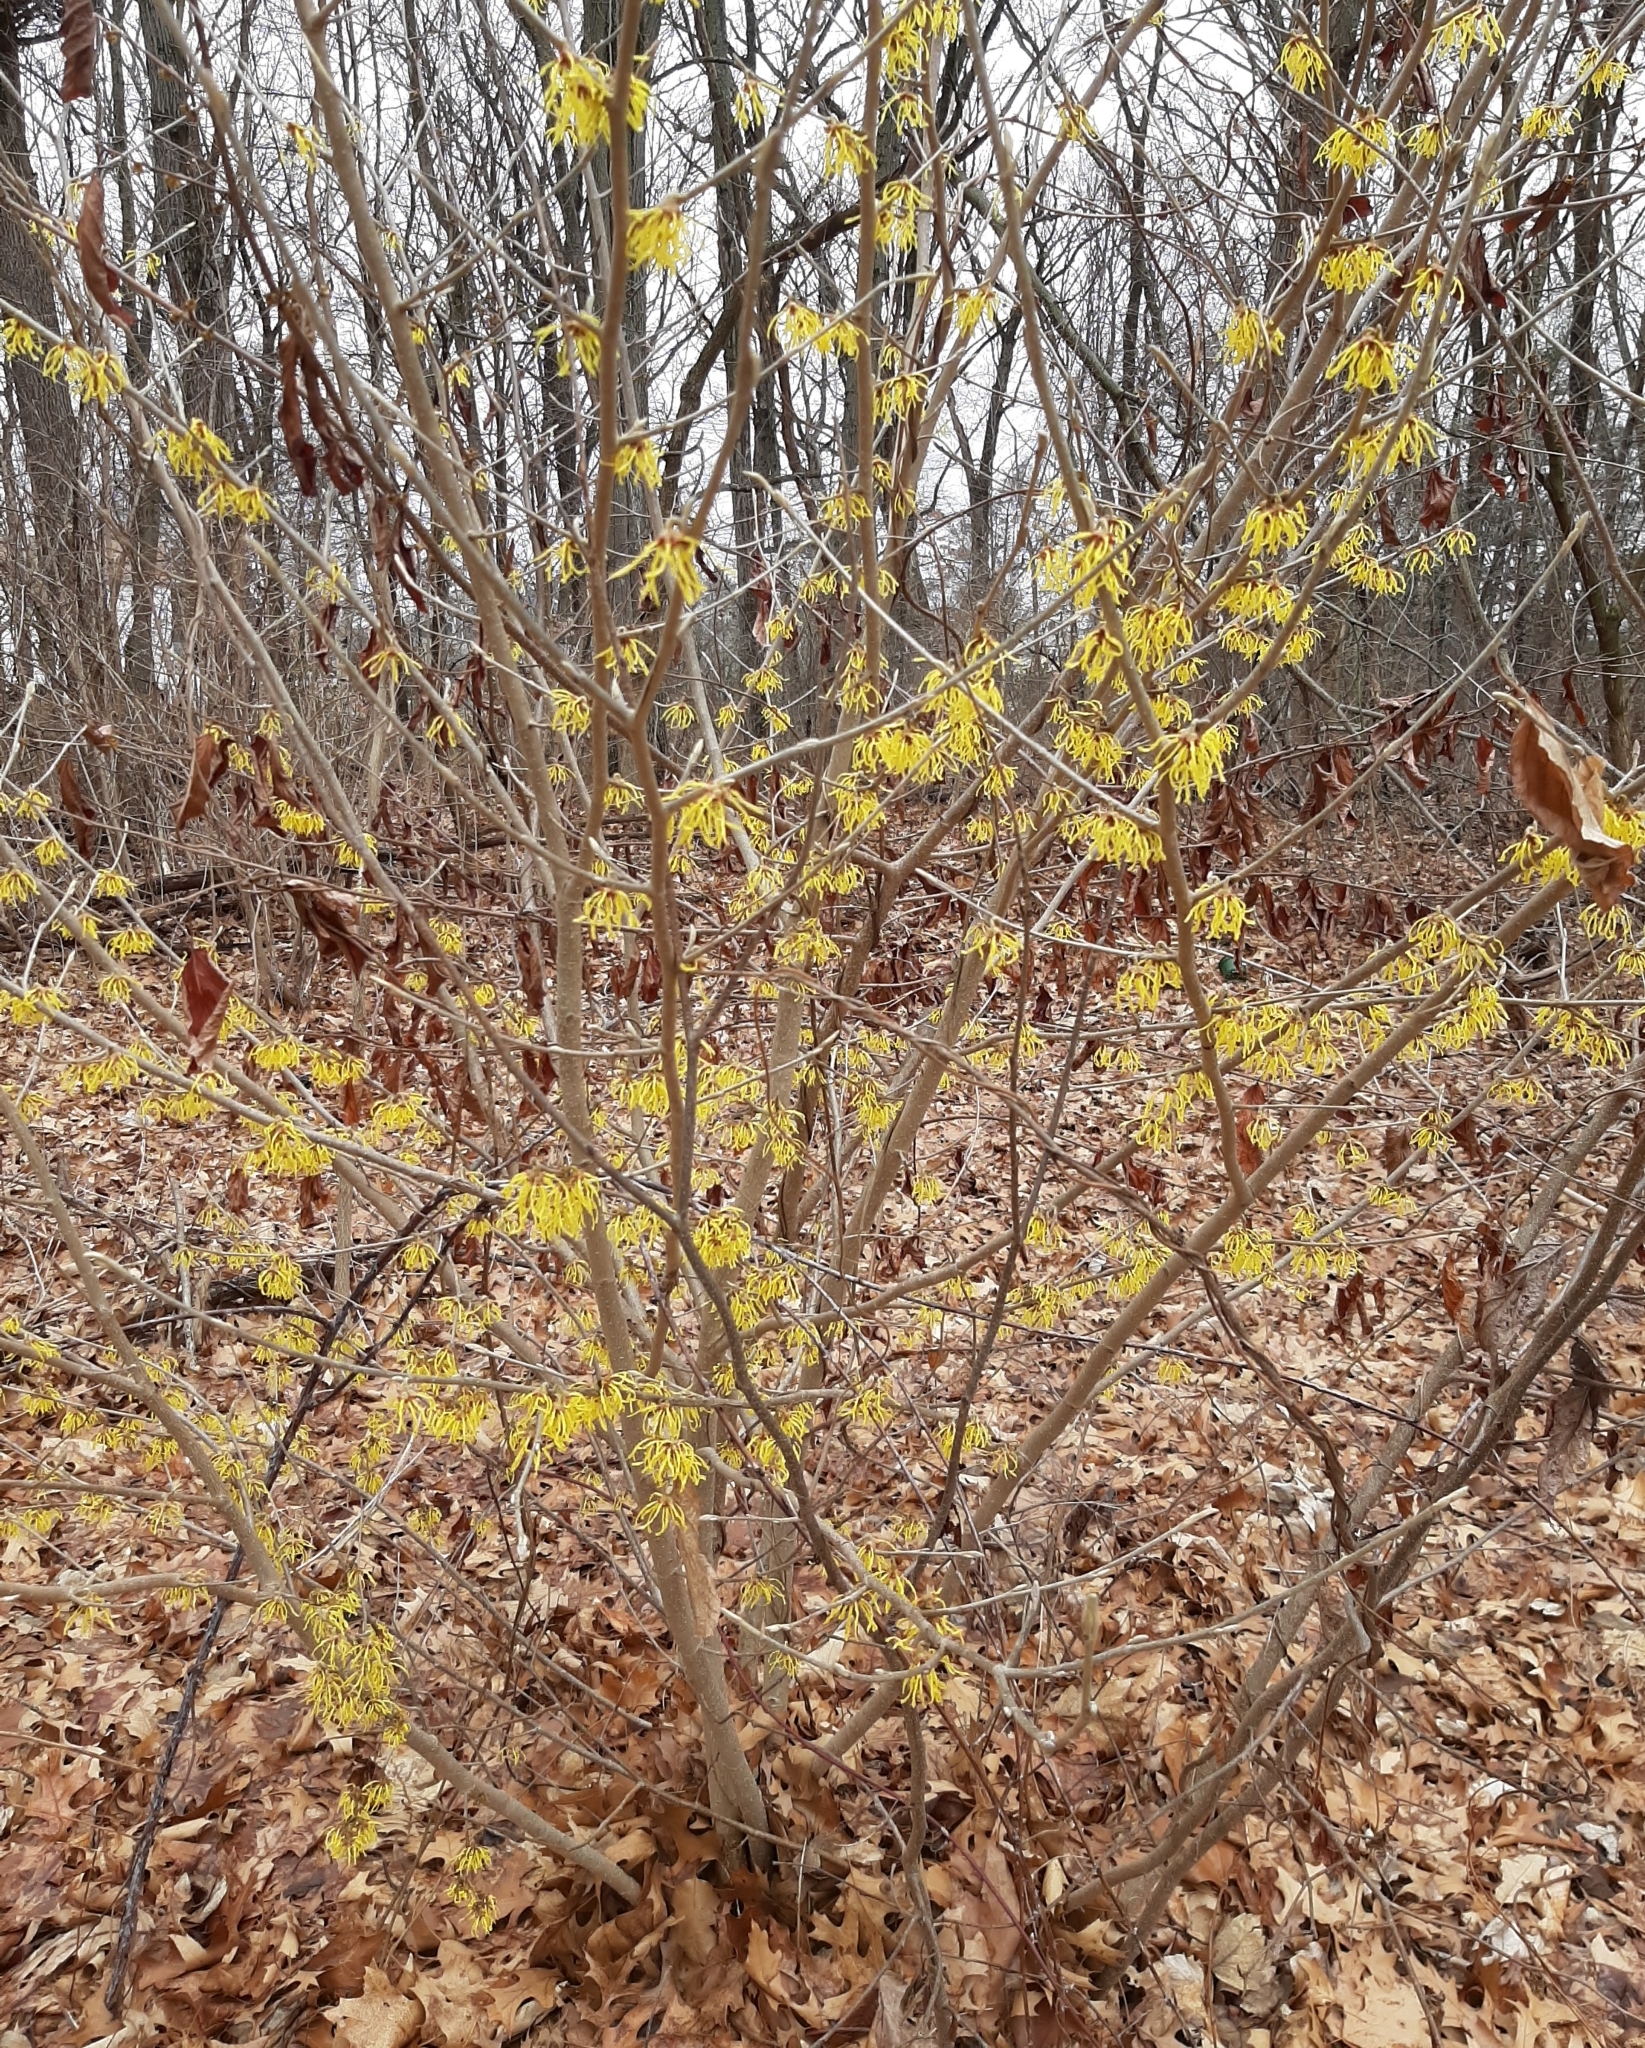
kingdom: Plantae
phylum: Tracheophyta
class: Magnoliopsida
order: Saxifragales
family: Hamamelidaceae
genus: Hamamelis
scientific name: Hamamelis virginiana
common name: Witch-hazel
